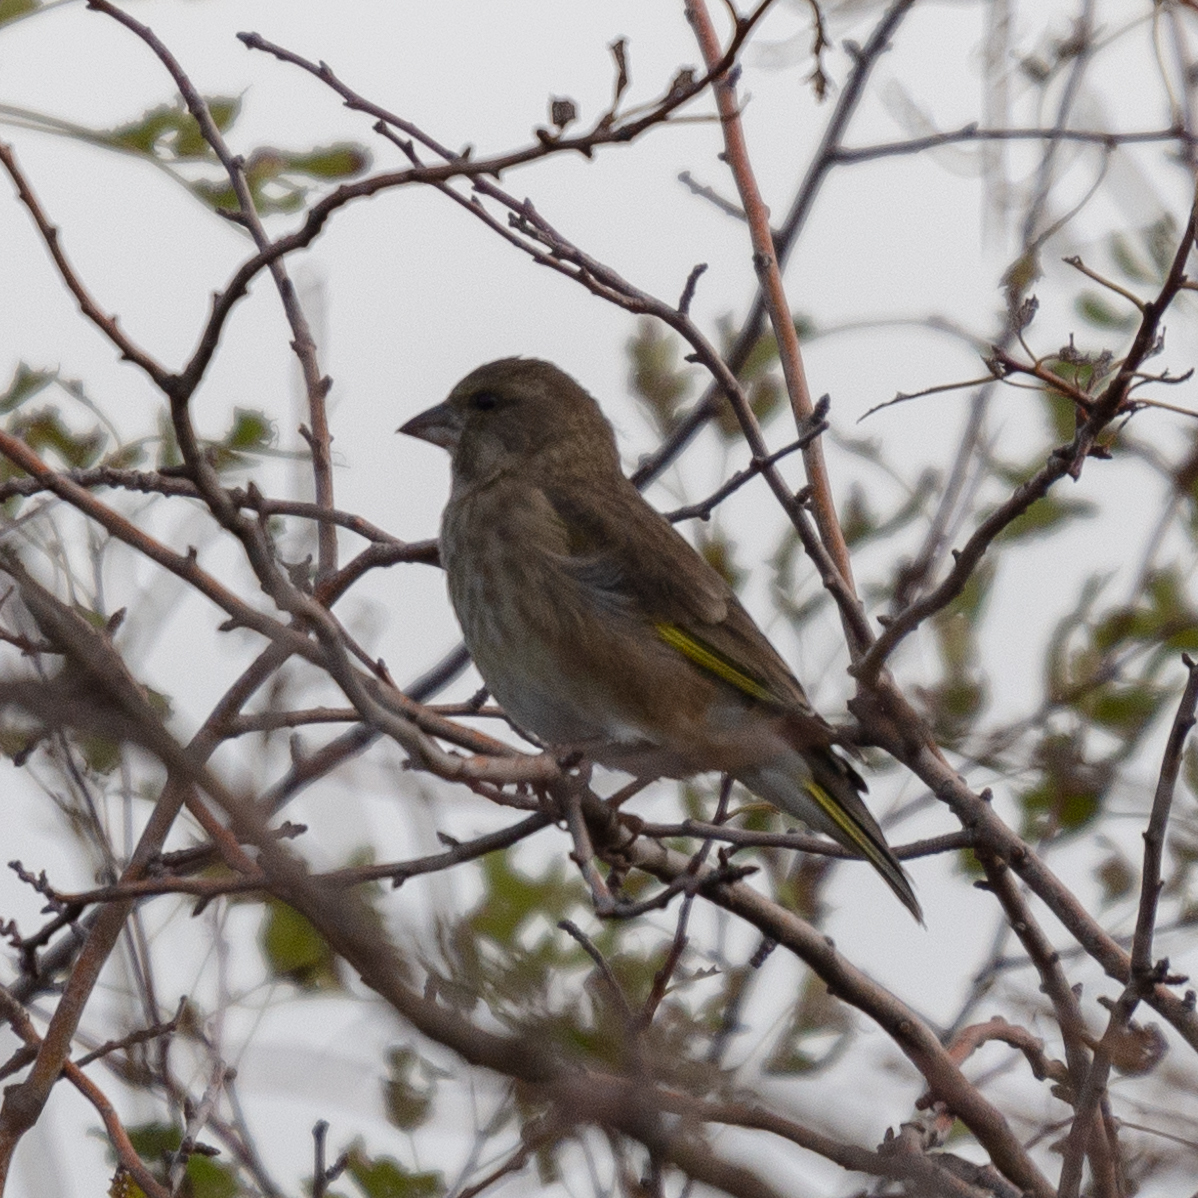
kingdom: Plantae
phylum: Tracheophyta
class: Liliopsida
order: Poales
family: Poaceae
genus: Chloris
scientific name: Chloris chloris
